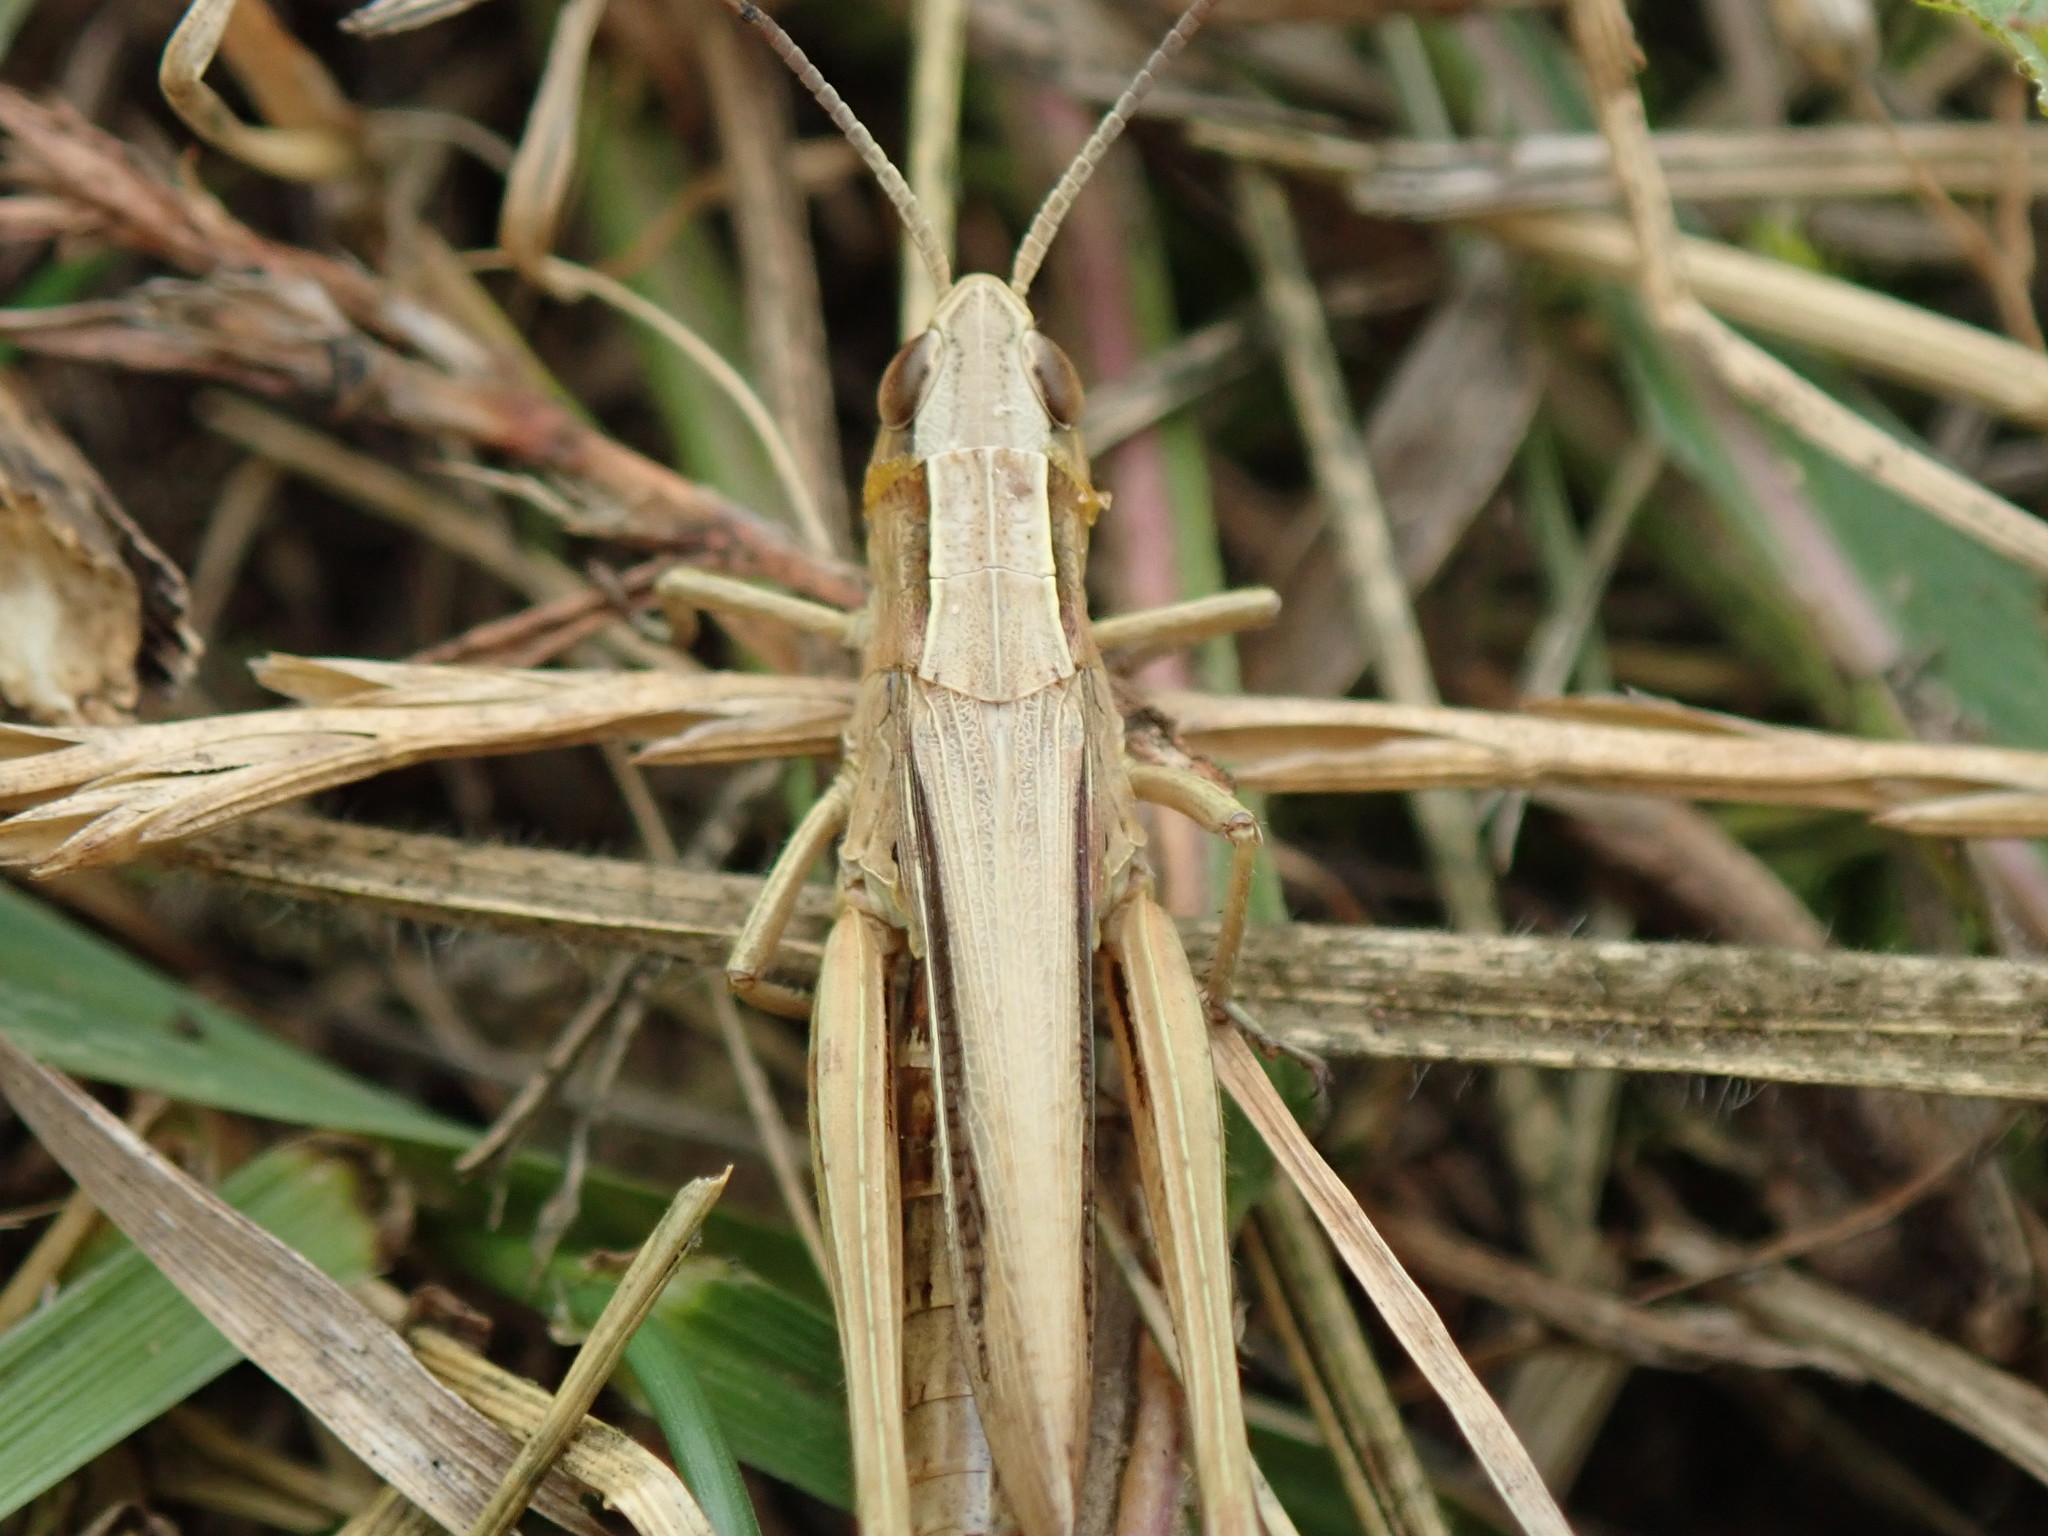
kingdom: Animalia
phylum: Arthropoda
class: Insecta
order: Orthoptera
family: Acrididae
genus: Chorthippus
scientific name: Chorthippus albomarginatus
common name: Lesser marsh grasshopper
